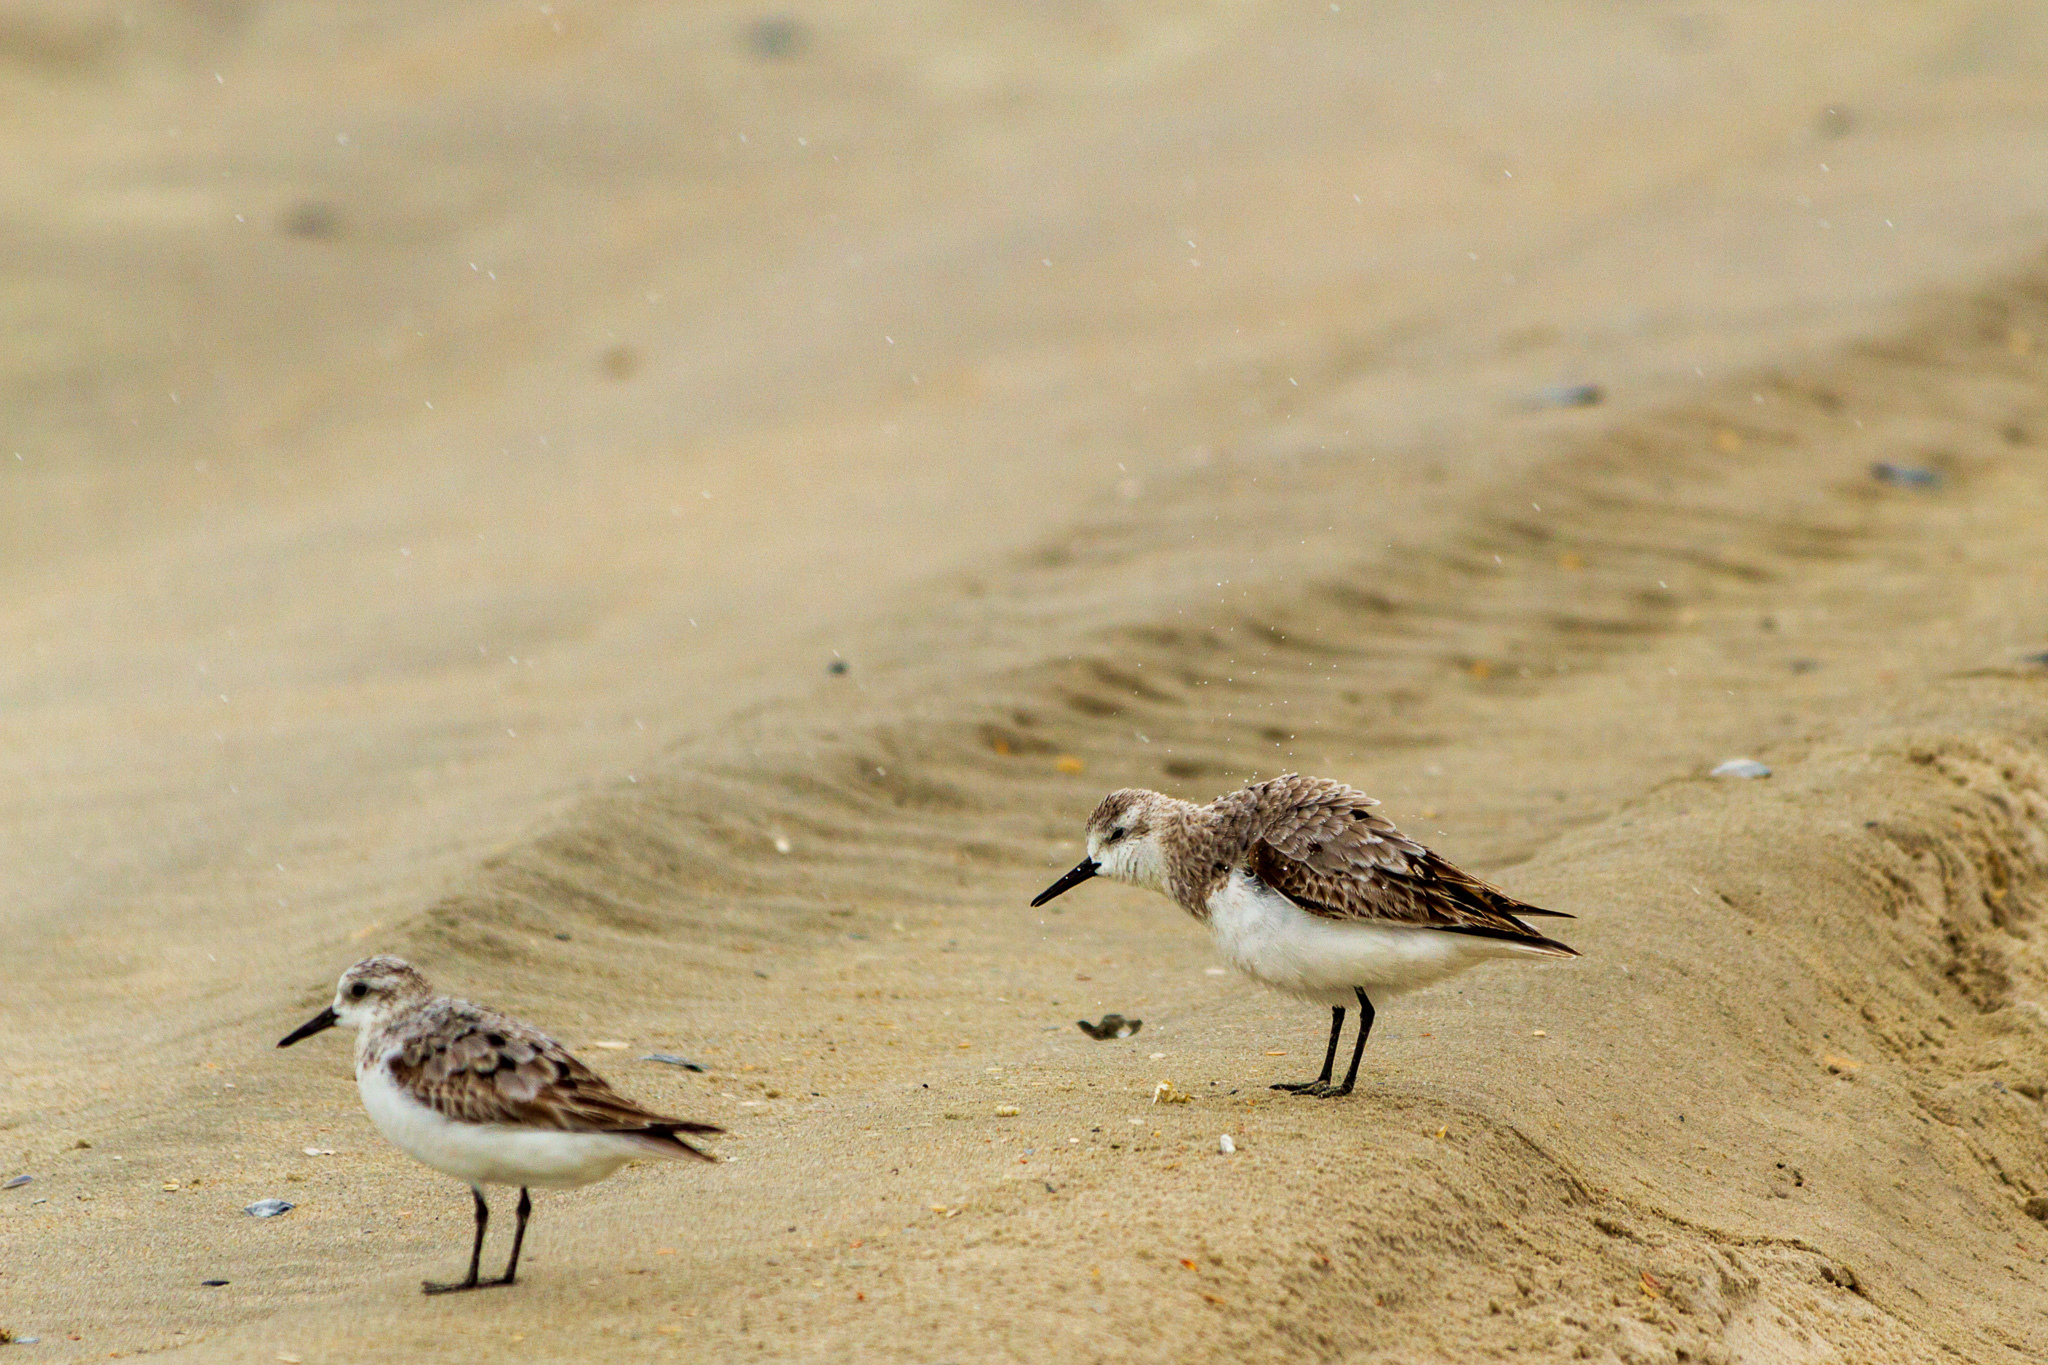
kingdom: Animalia
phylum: Chordata
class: Aves
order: Charadriiformes
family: Scolopacidae
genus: Calidris
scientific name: Calidris alba
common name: Sanderling
